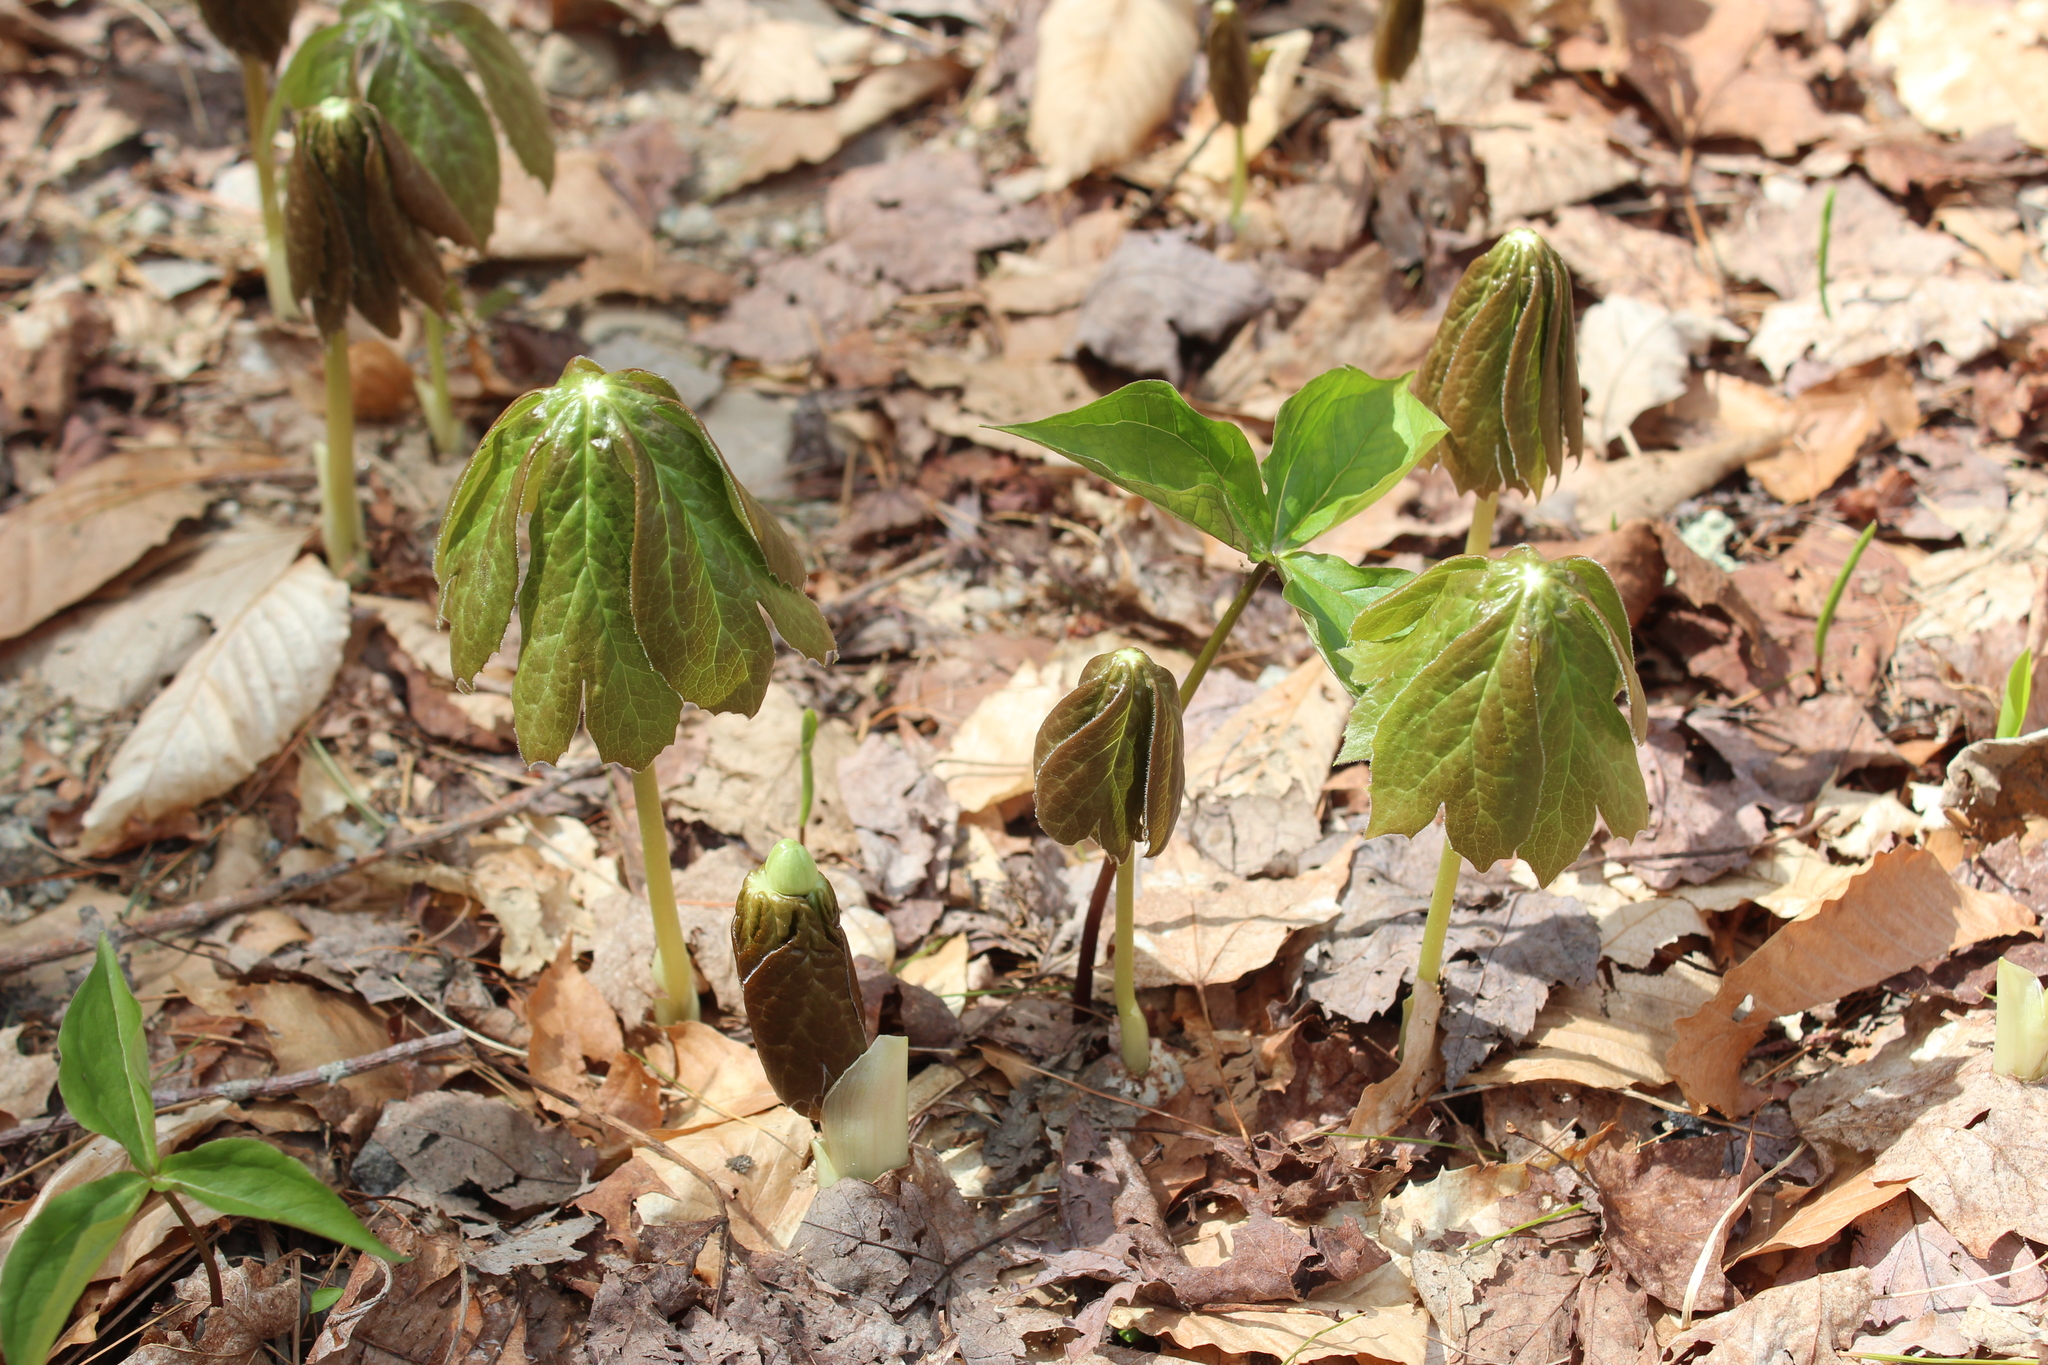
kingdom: Plantae
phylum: Tracheophyta
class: Magnoliopsida
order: Ranunculales
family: Berberidaceae
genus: Podophyllum
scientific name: Podophyllum peltatum
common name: Wild mandrake
